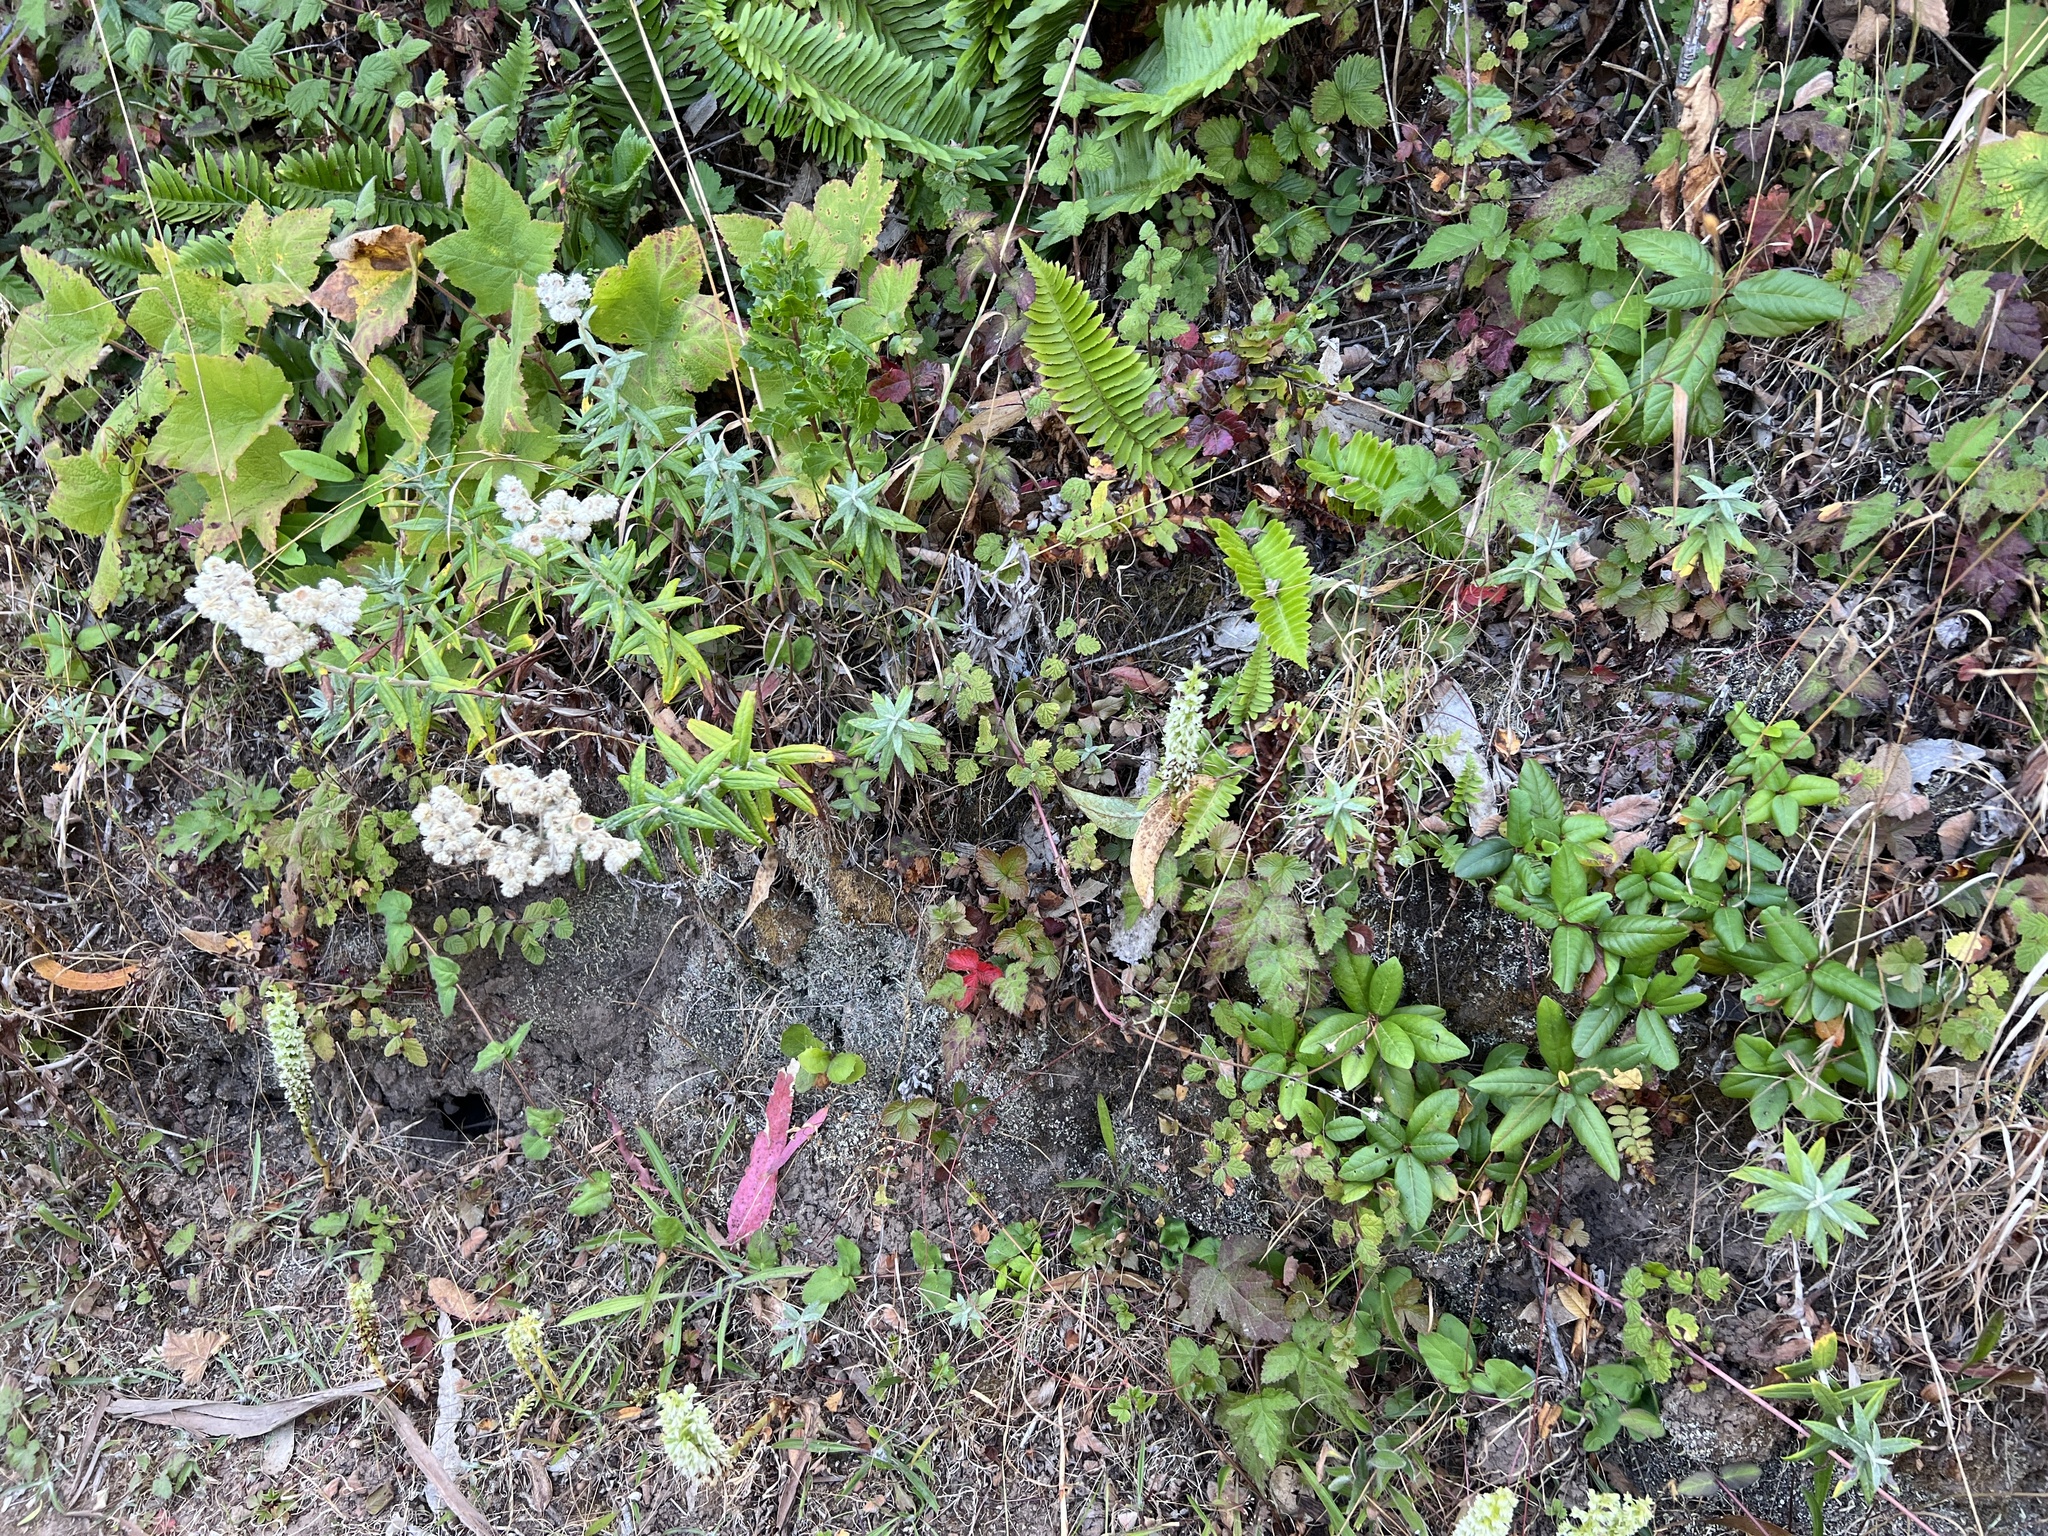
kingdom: Plantae
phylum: Tracheophyta
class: Liliopsida
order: Asparagales
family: Orchidaceae
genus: Platanthera
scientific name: Platanthera elegans
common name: Coast piperia
